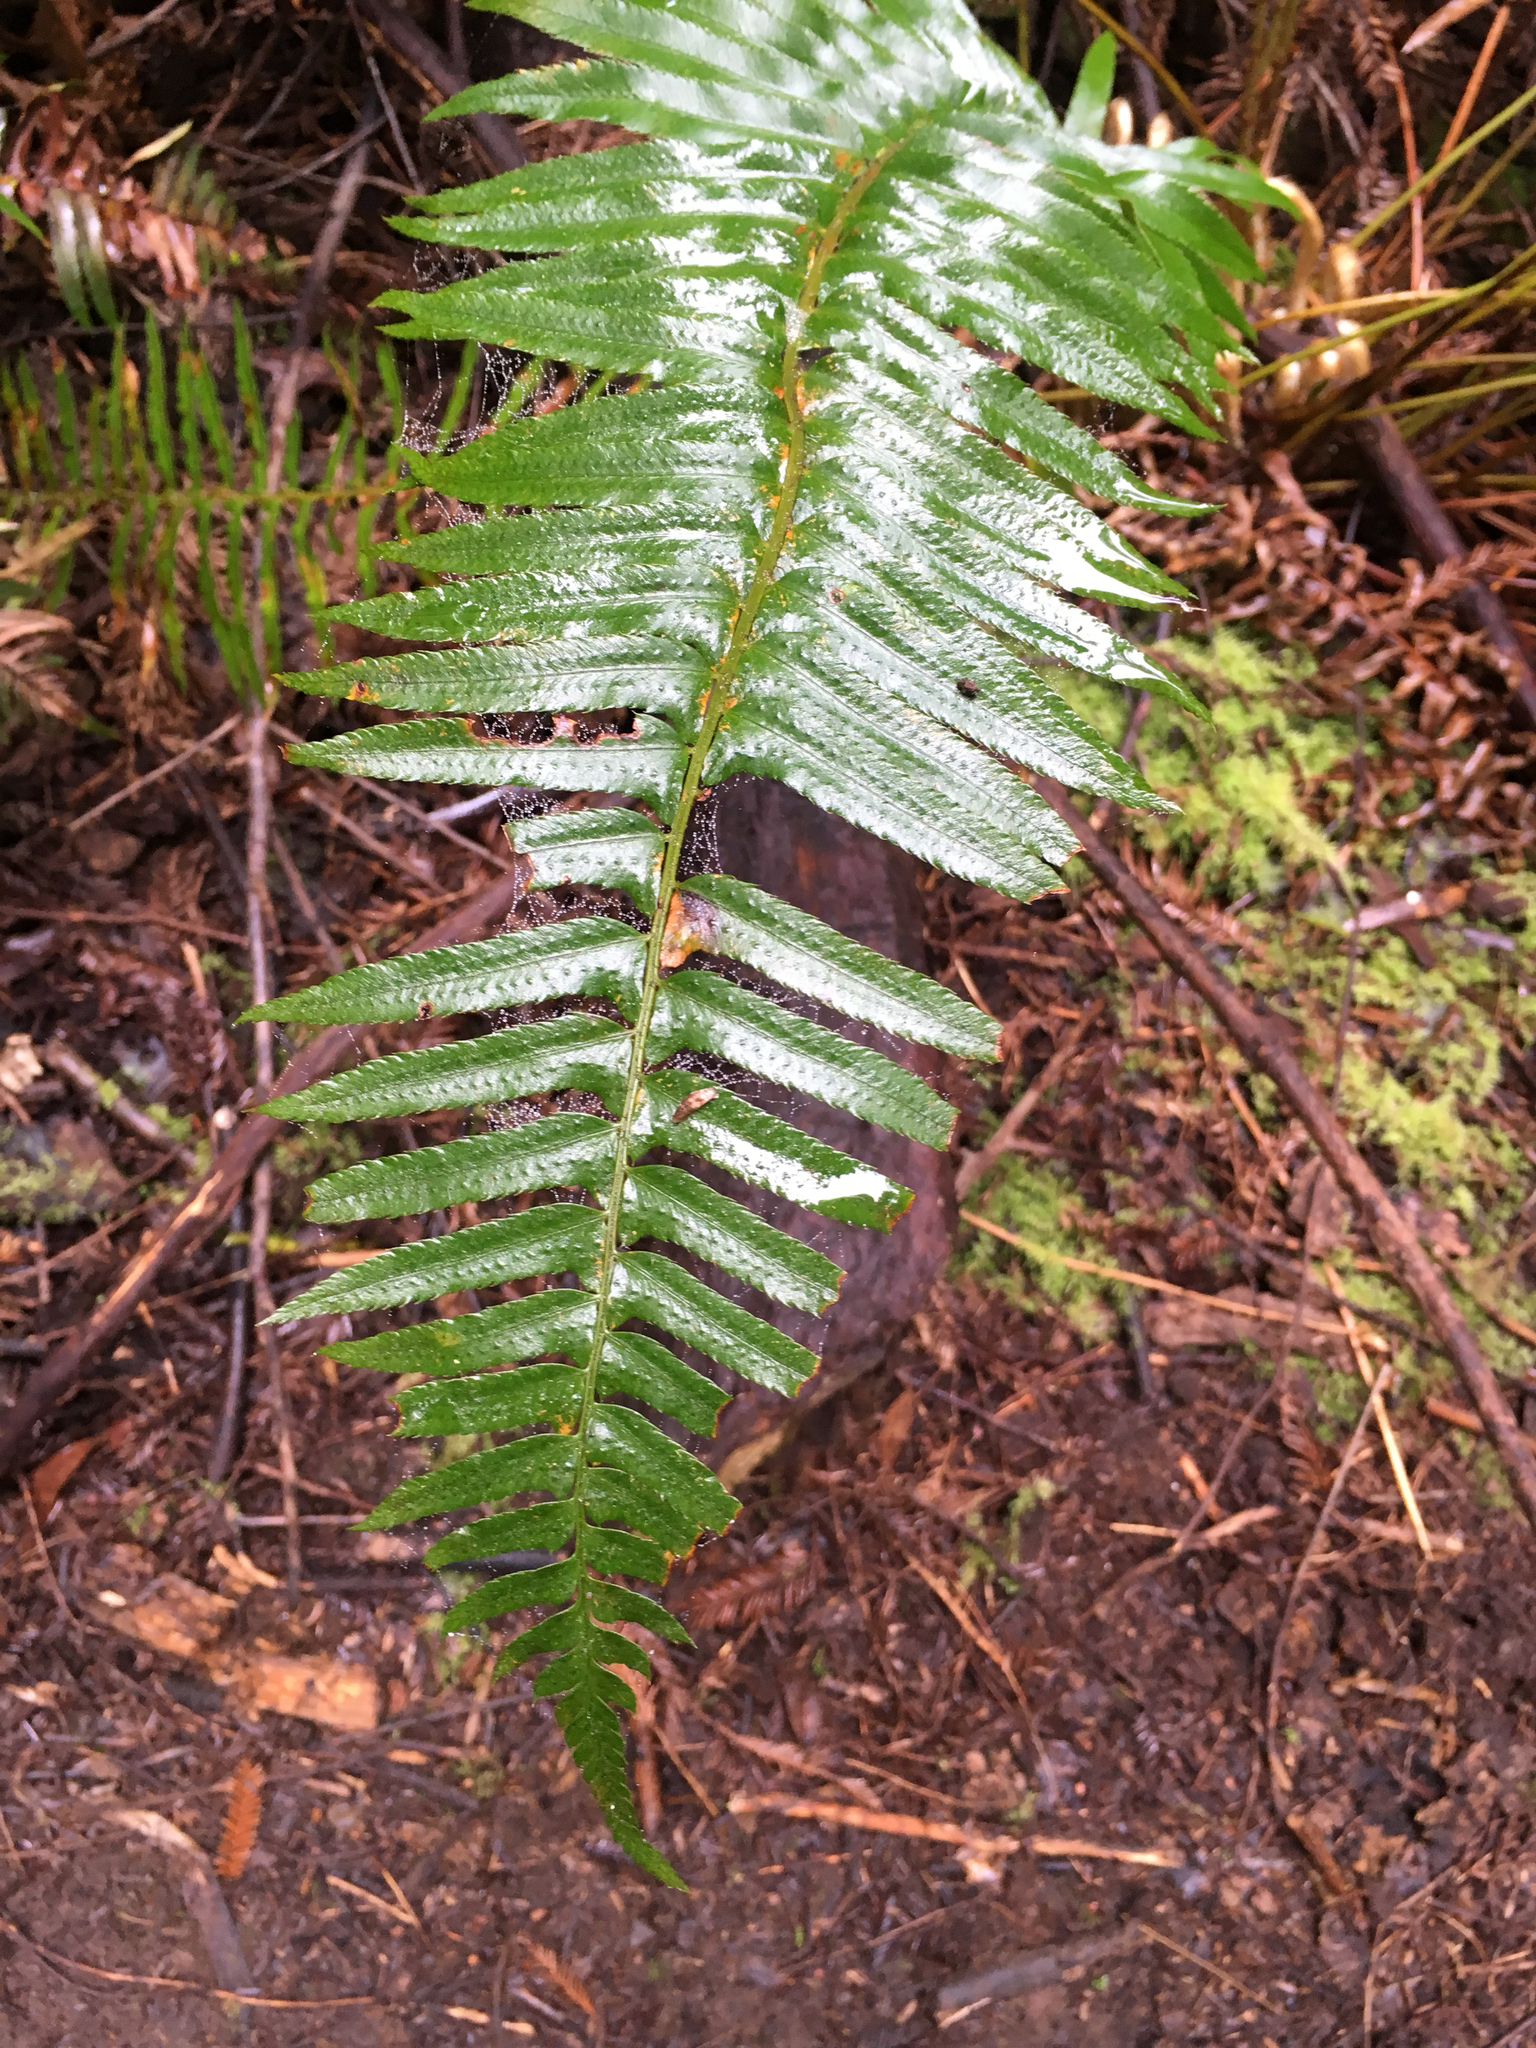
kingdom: Plantae
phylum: Tracheophyta
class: Polypodiopsida
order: Polypodiales
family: Dryopteridaceae
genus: Polystichum
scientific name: Polystichum munitum
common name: Western sword-fern
